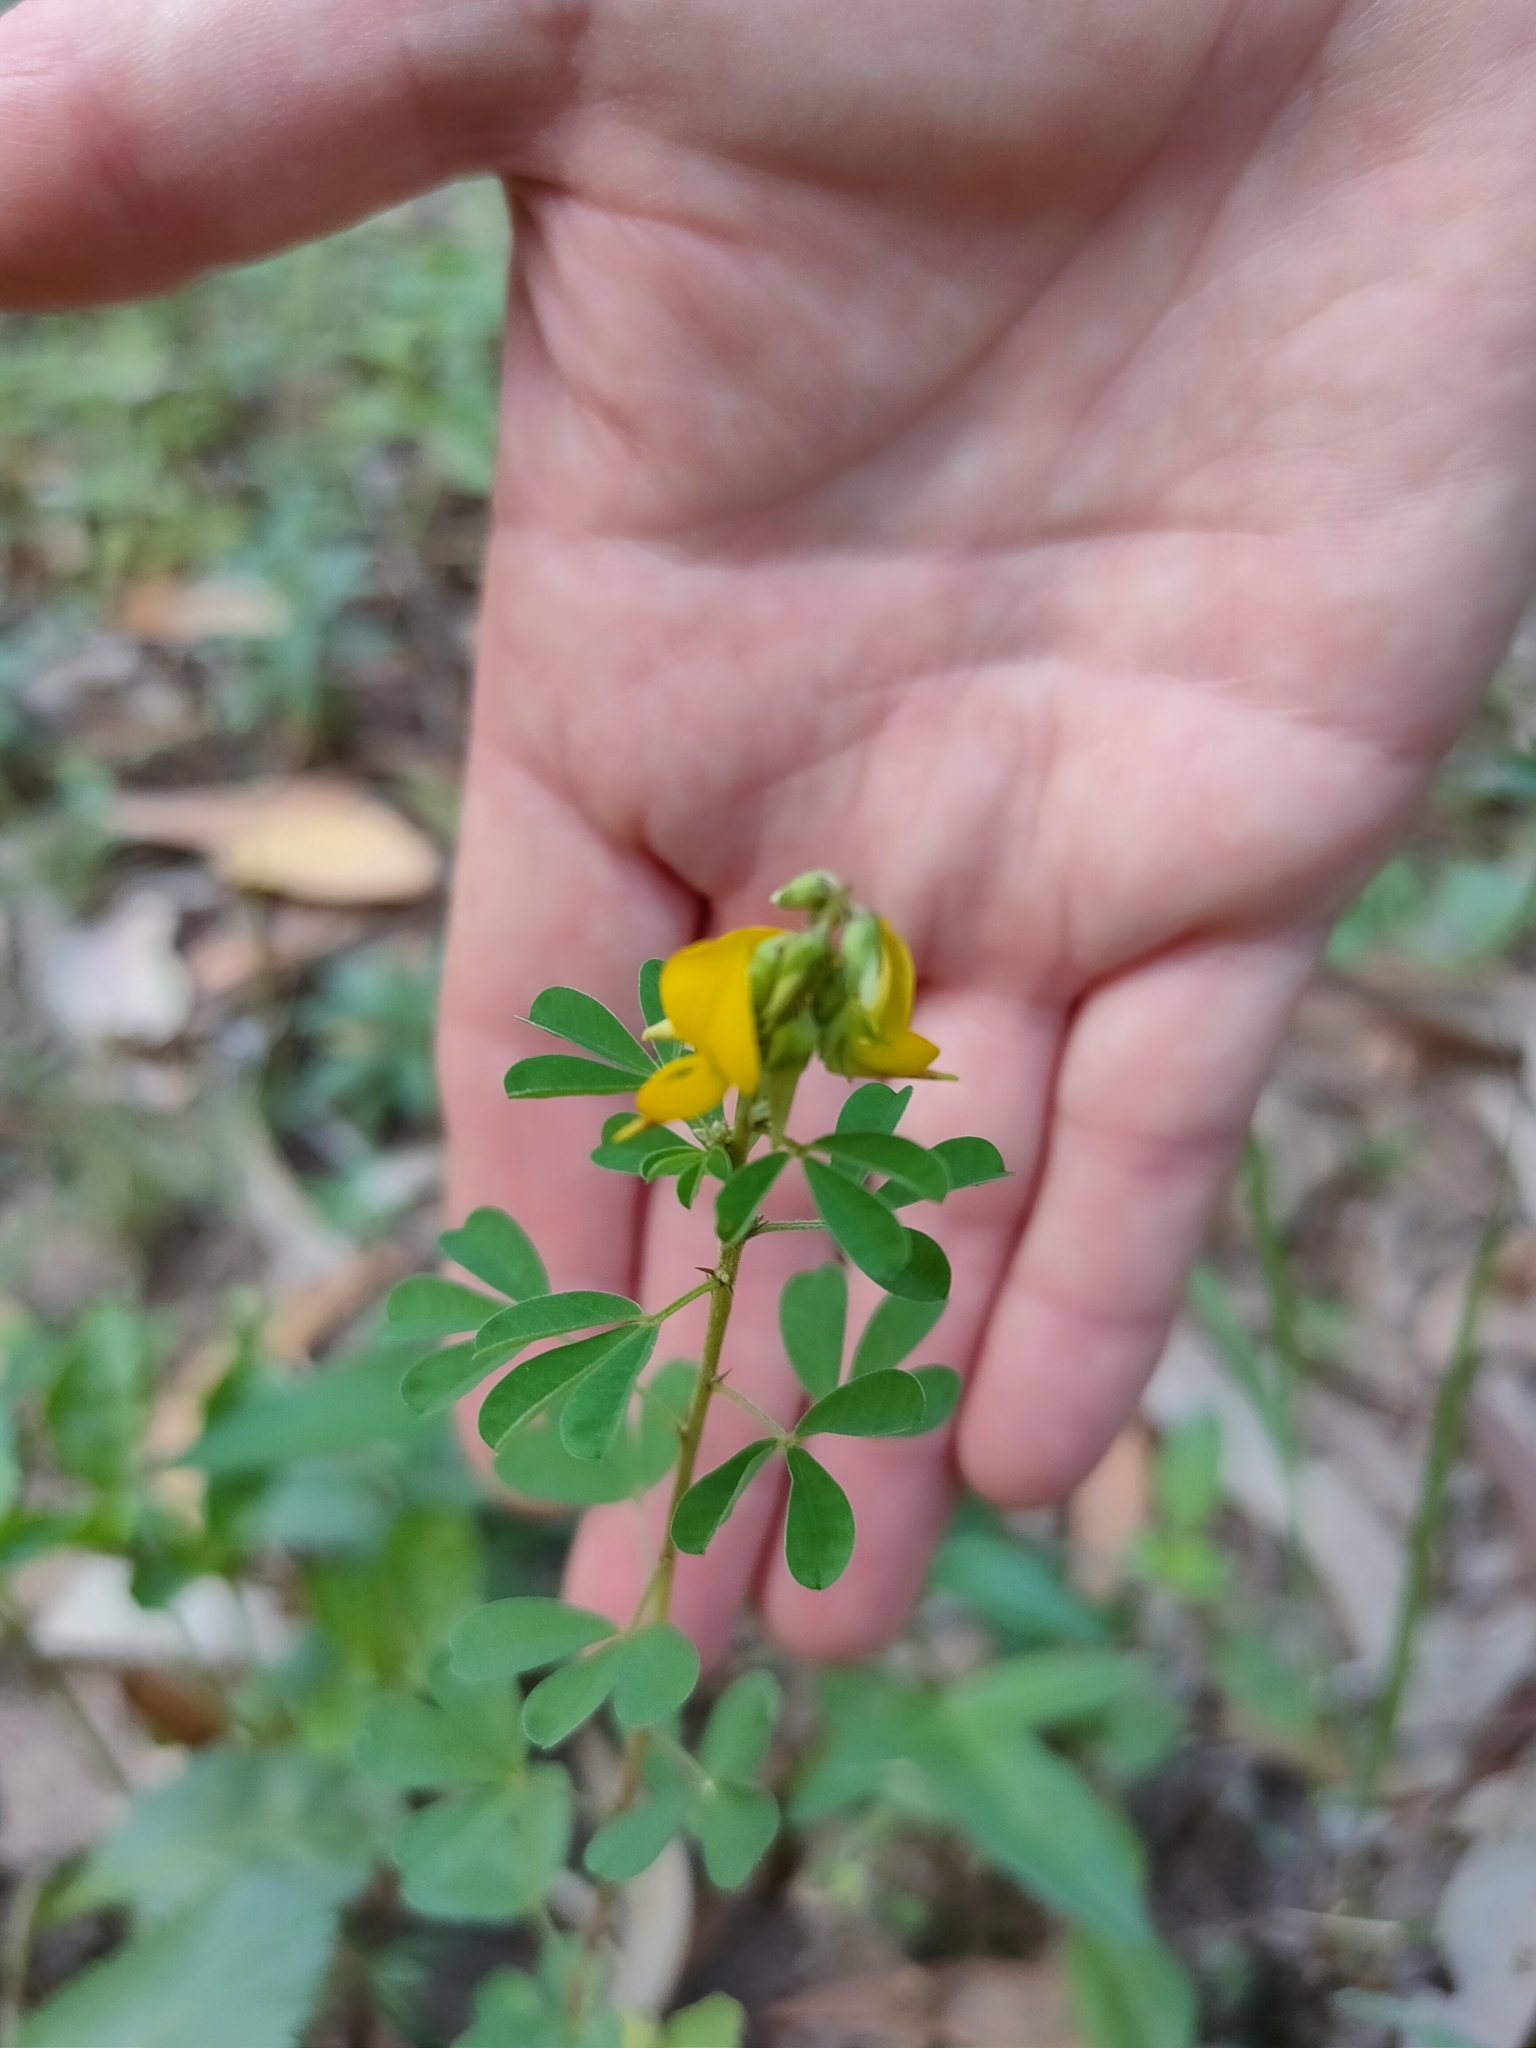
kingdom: Plantae
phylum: Tracheophyta
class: Magnoliopsida
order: Fabales
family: Fabaceae
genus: Crotalaria
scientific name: Crotalaria medicaginea
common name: Trefoil rattlepod
